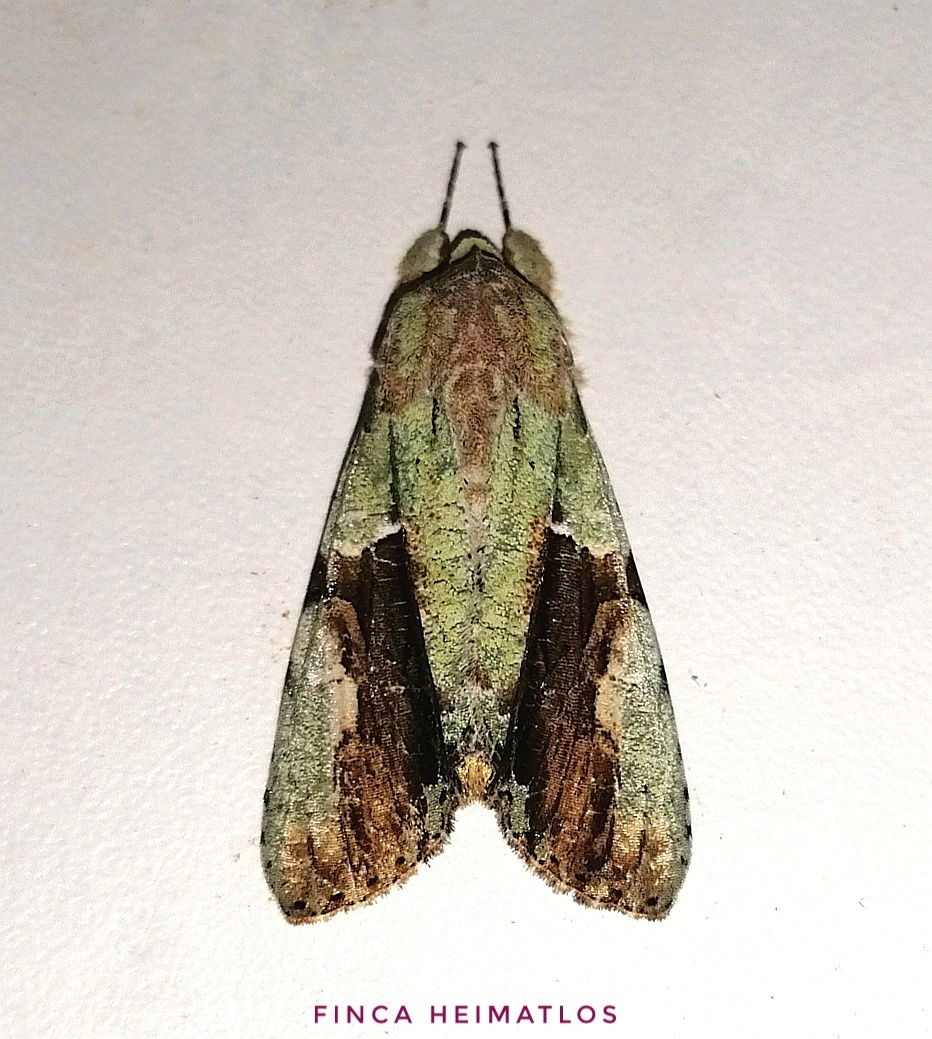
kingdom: Animalia
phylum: Arthropoda
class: Insecta
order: Lepidoptera
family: Noctuidae
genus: Stauropides
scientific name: Stauropides persimilis
